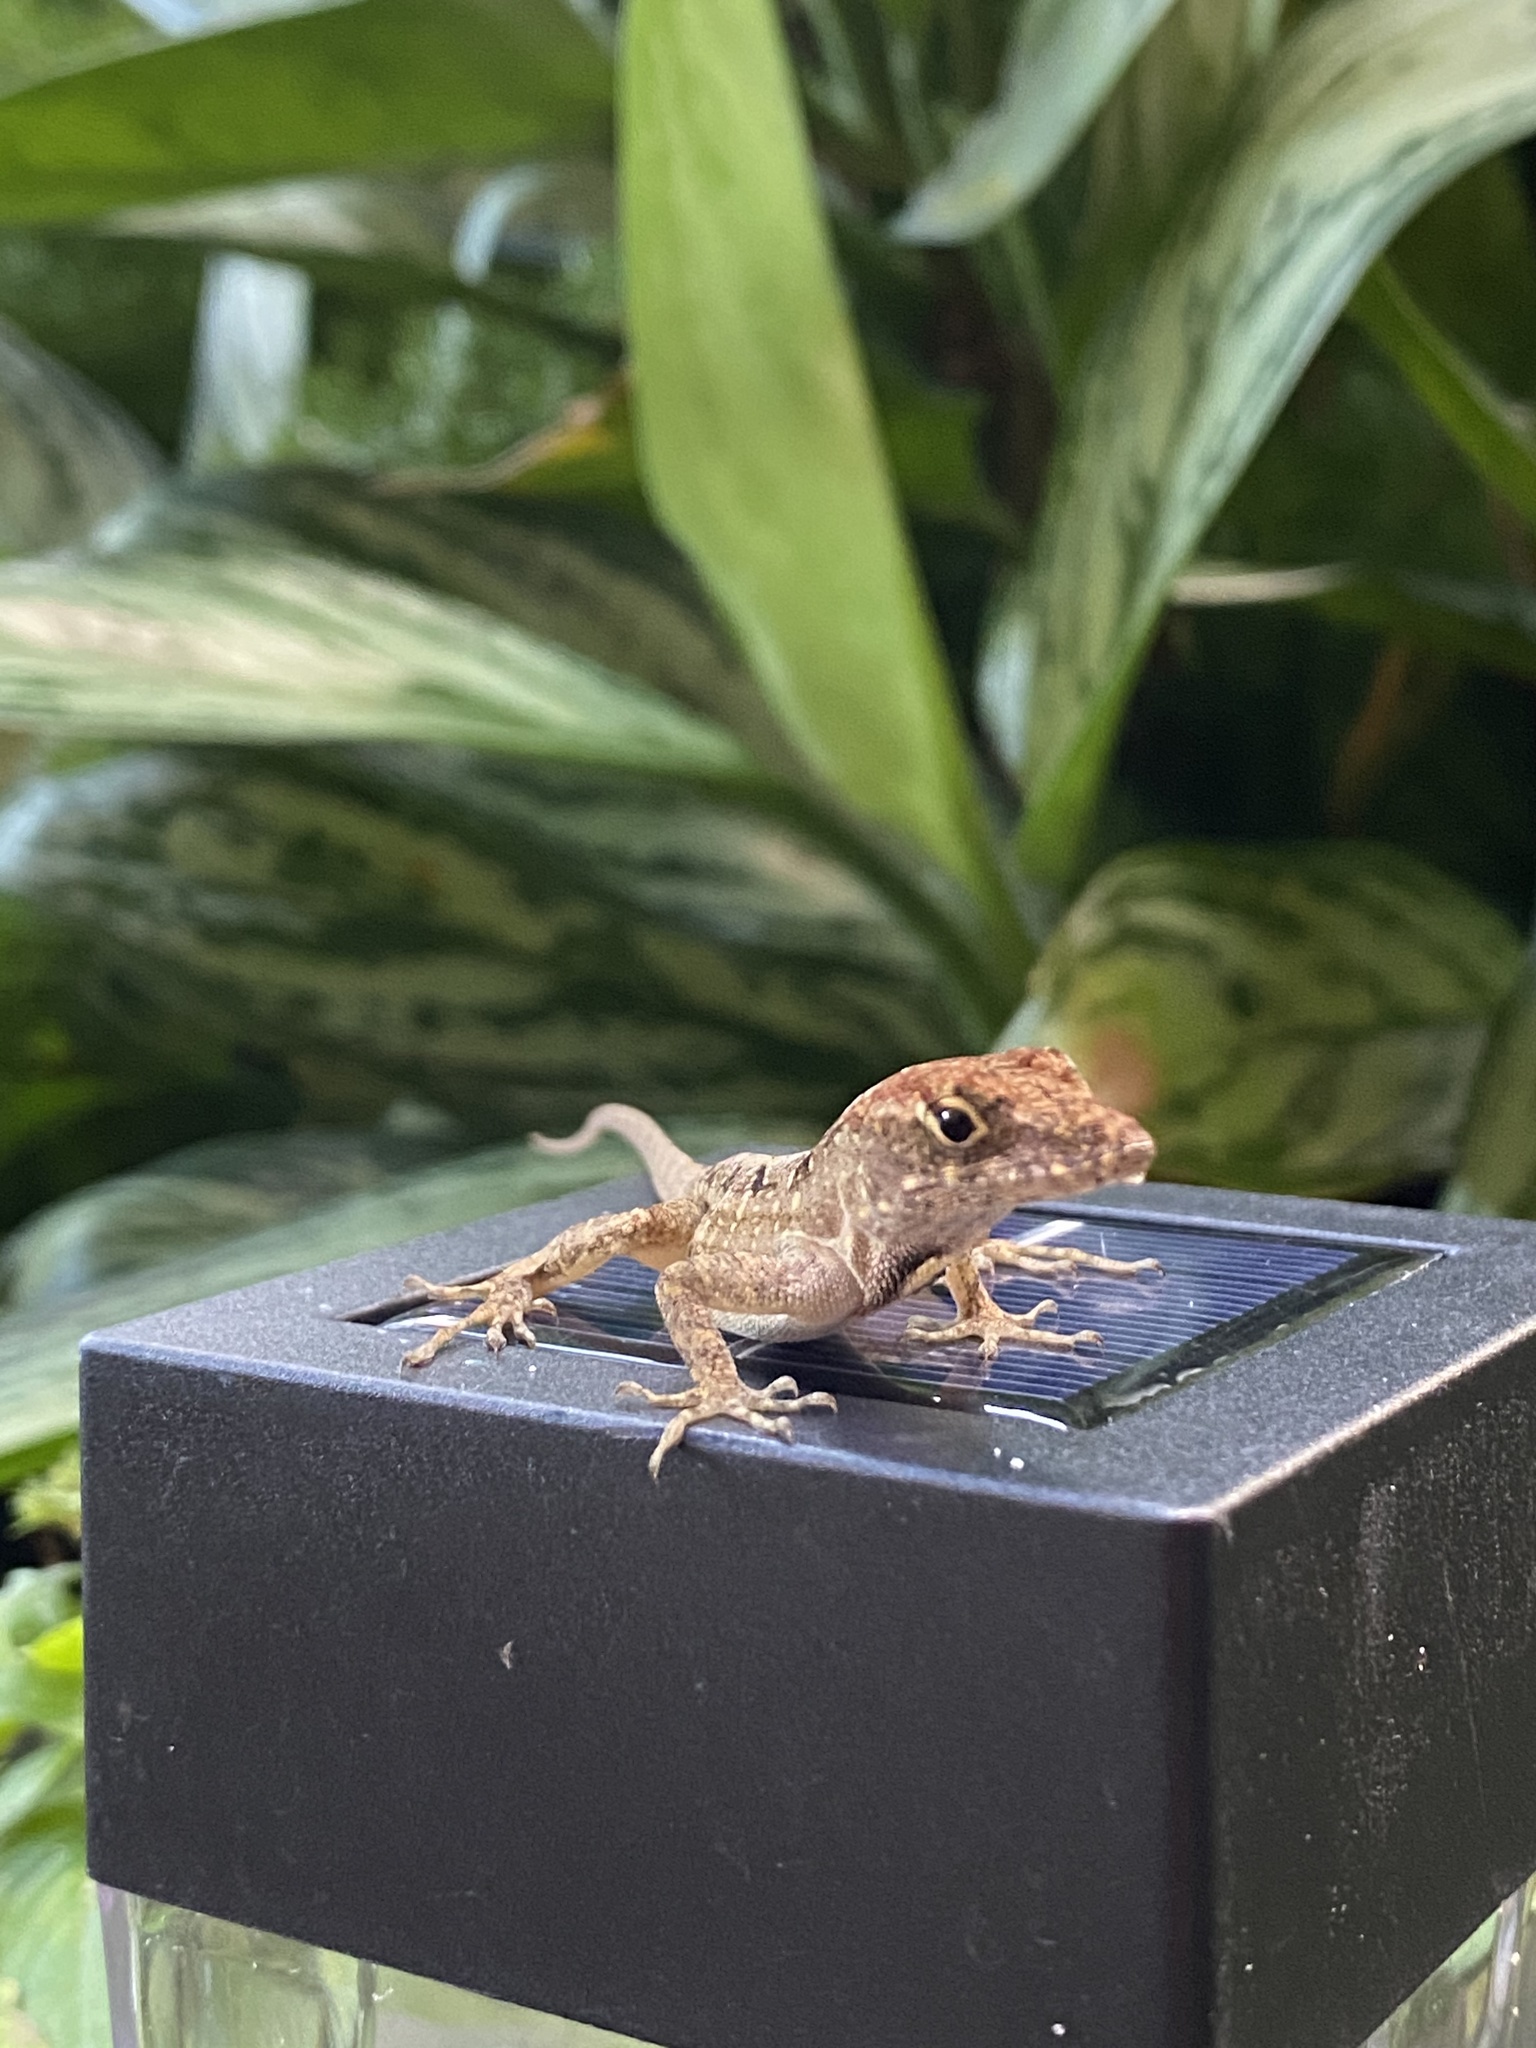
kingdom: Animalia
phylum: Chordata
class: Squamata
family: Dactyloidae
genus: Anolis
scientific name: Anolis sagrei
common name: Brown anole
